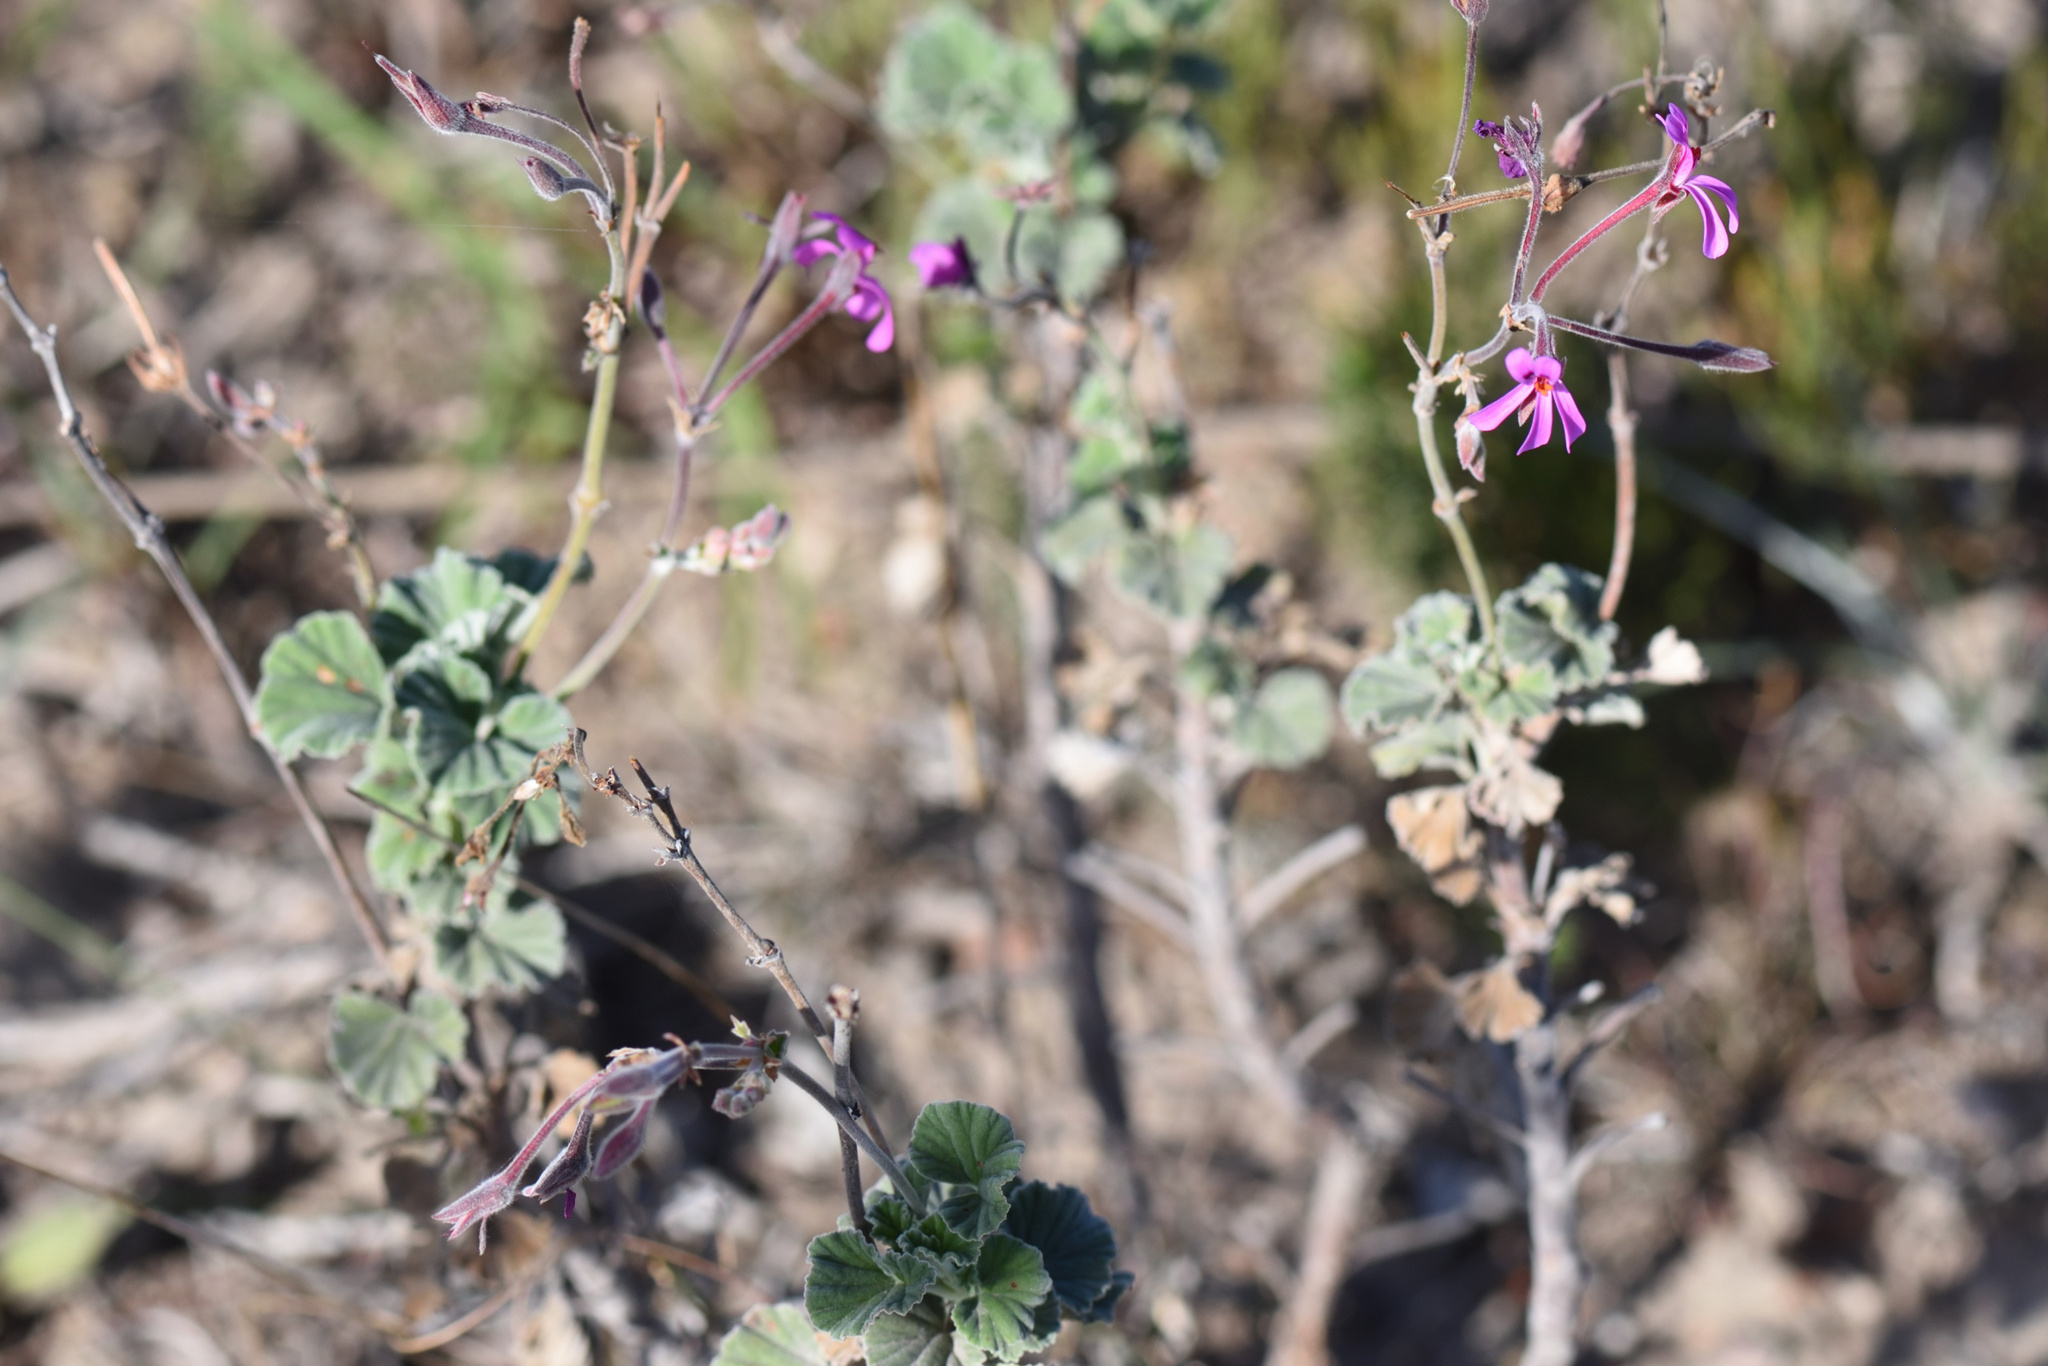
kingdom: Plantae
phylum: Tracheophyta
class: Magnoliopsida
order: Geraniales
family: Geraniaceae
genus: Pelargonium
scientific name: Pelargonium reniforme
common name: Kidney-leaf pelargonium
